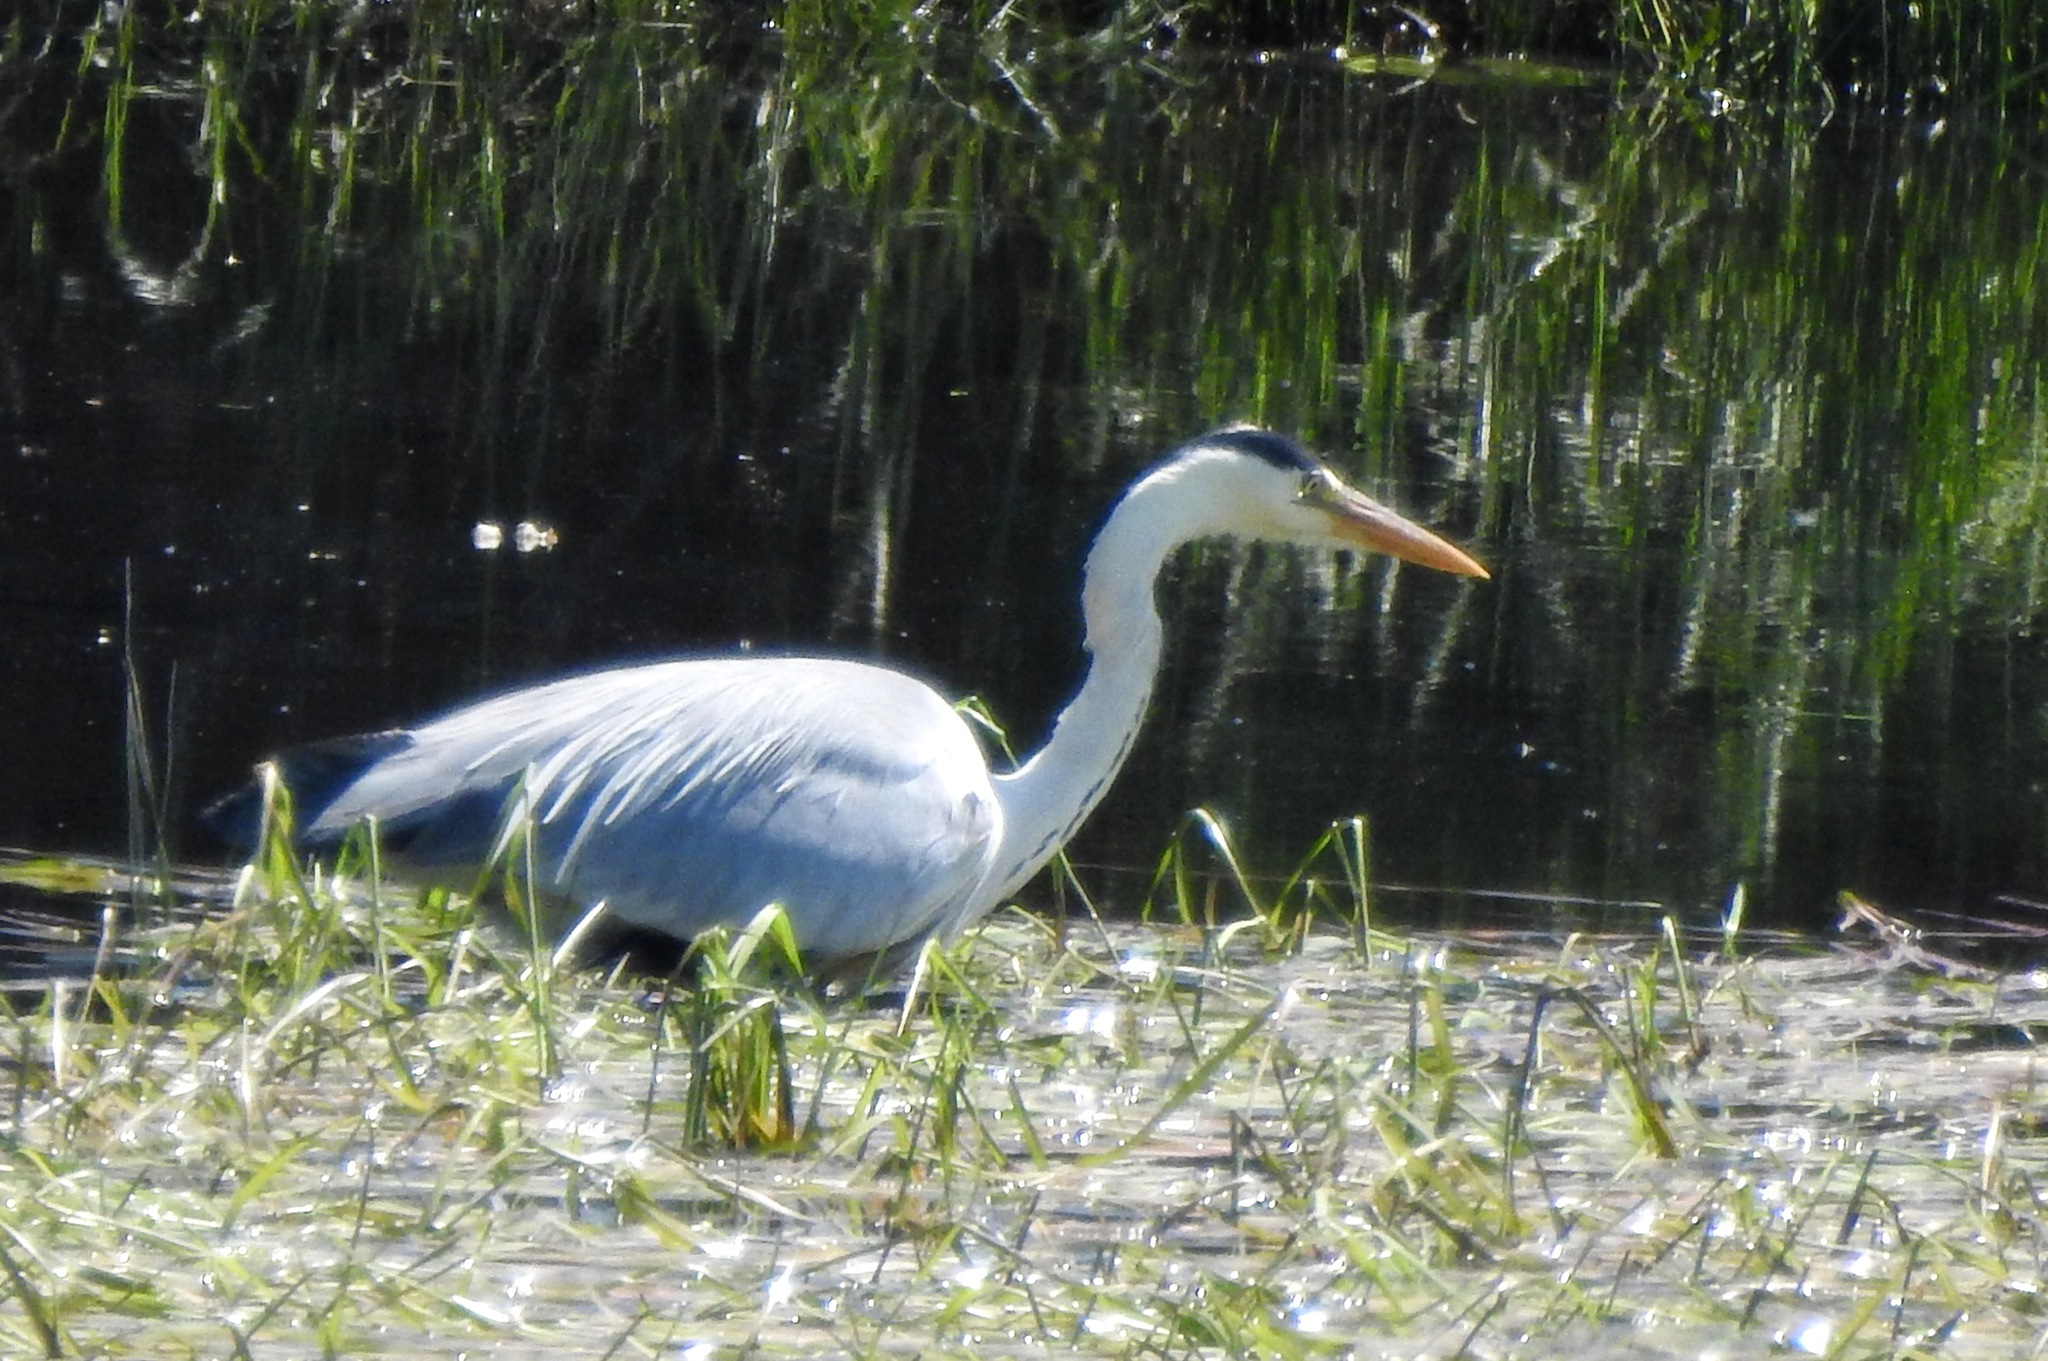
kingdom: Animalia
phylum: Chordata
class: Aves
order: Pelecaniformes
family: Ardeidae
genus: Ardea
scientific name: Ardea cinerea
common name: Grey heron
